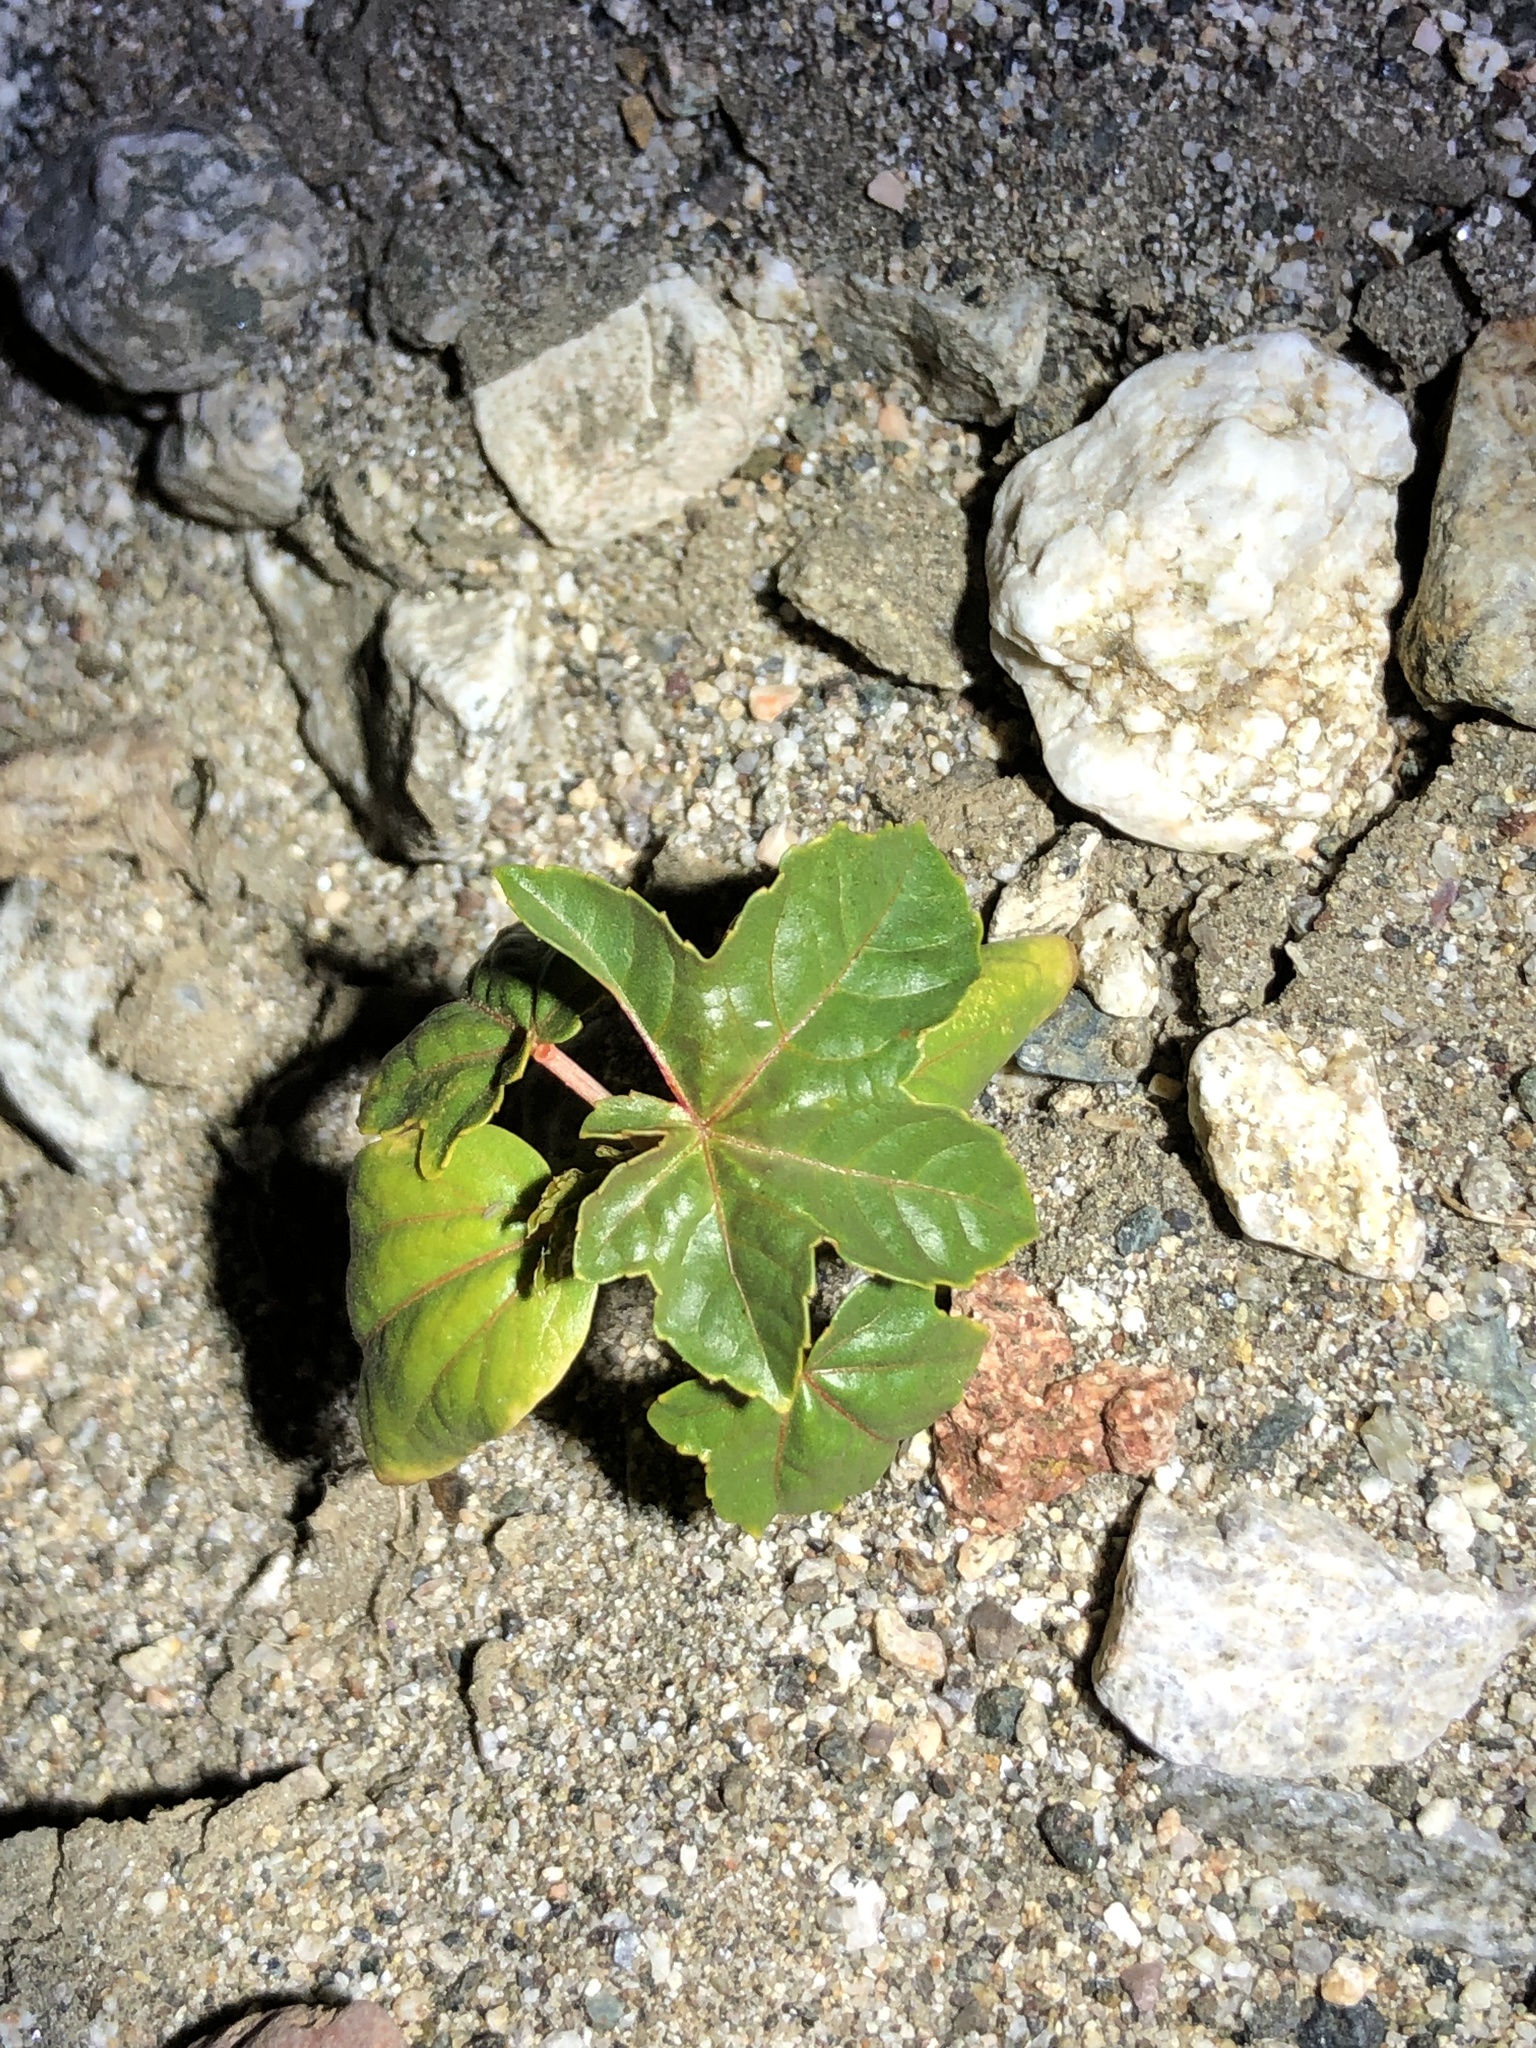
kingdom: Plantae
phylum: Tracheophyta
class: Magnoliopsida
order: Malpighiales
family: Euphorbiaceae
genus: Ricinus
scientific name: Ricinus communis
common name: Castor-oil-plant
